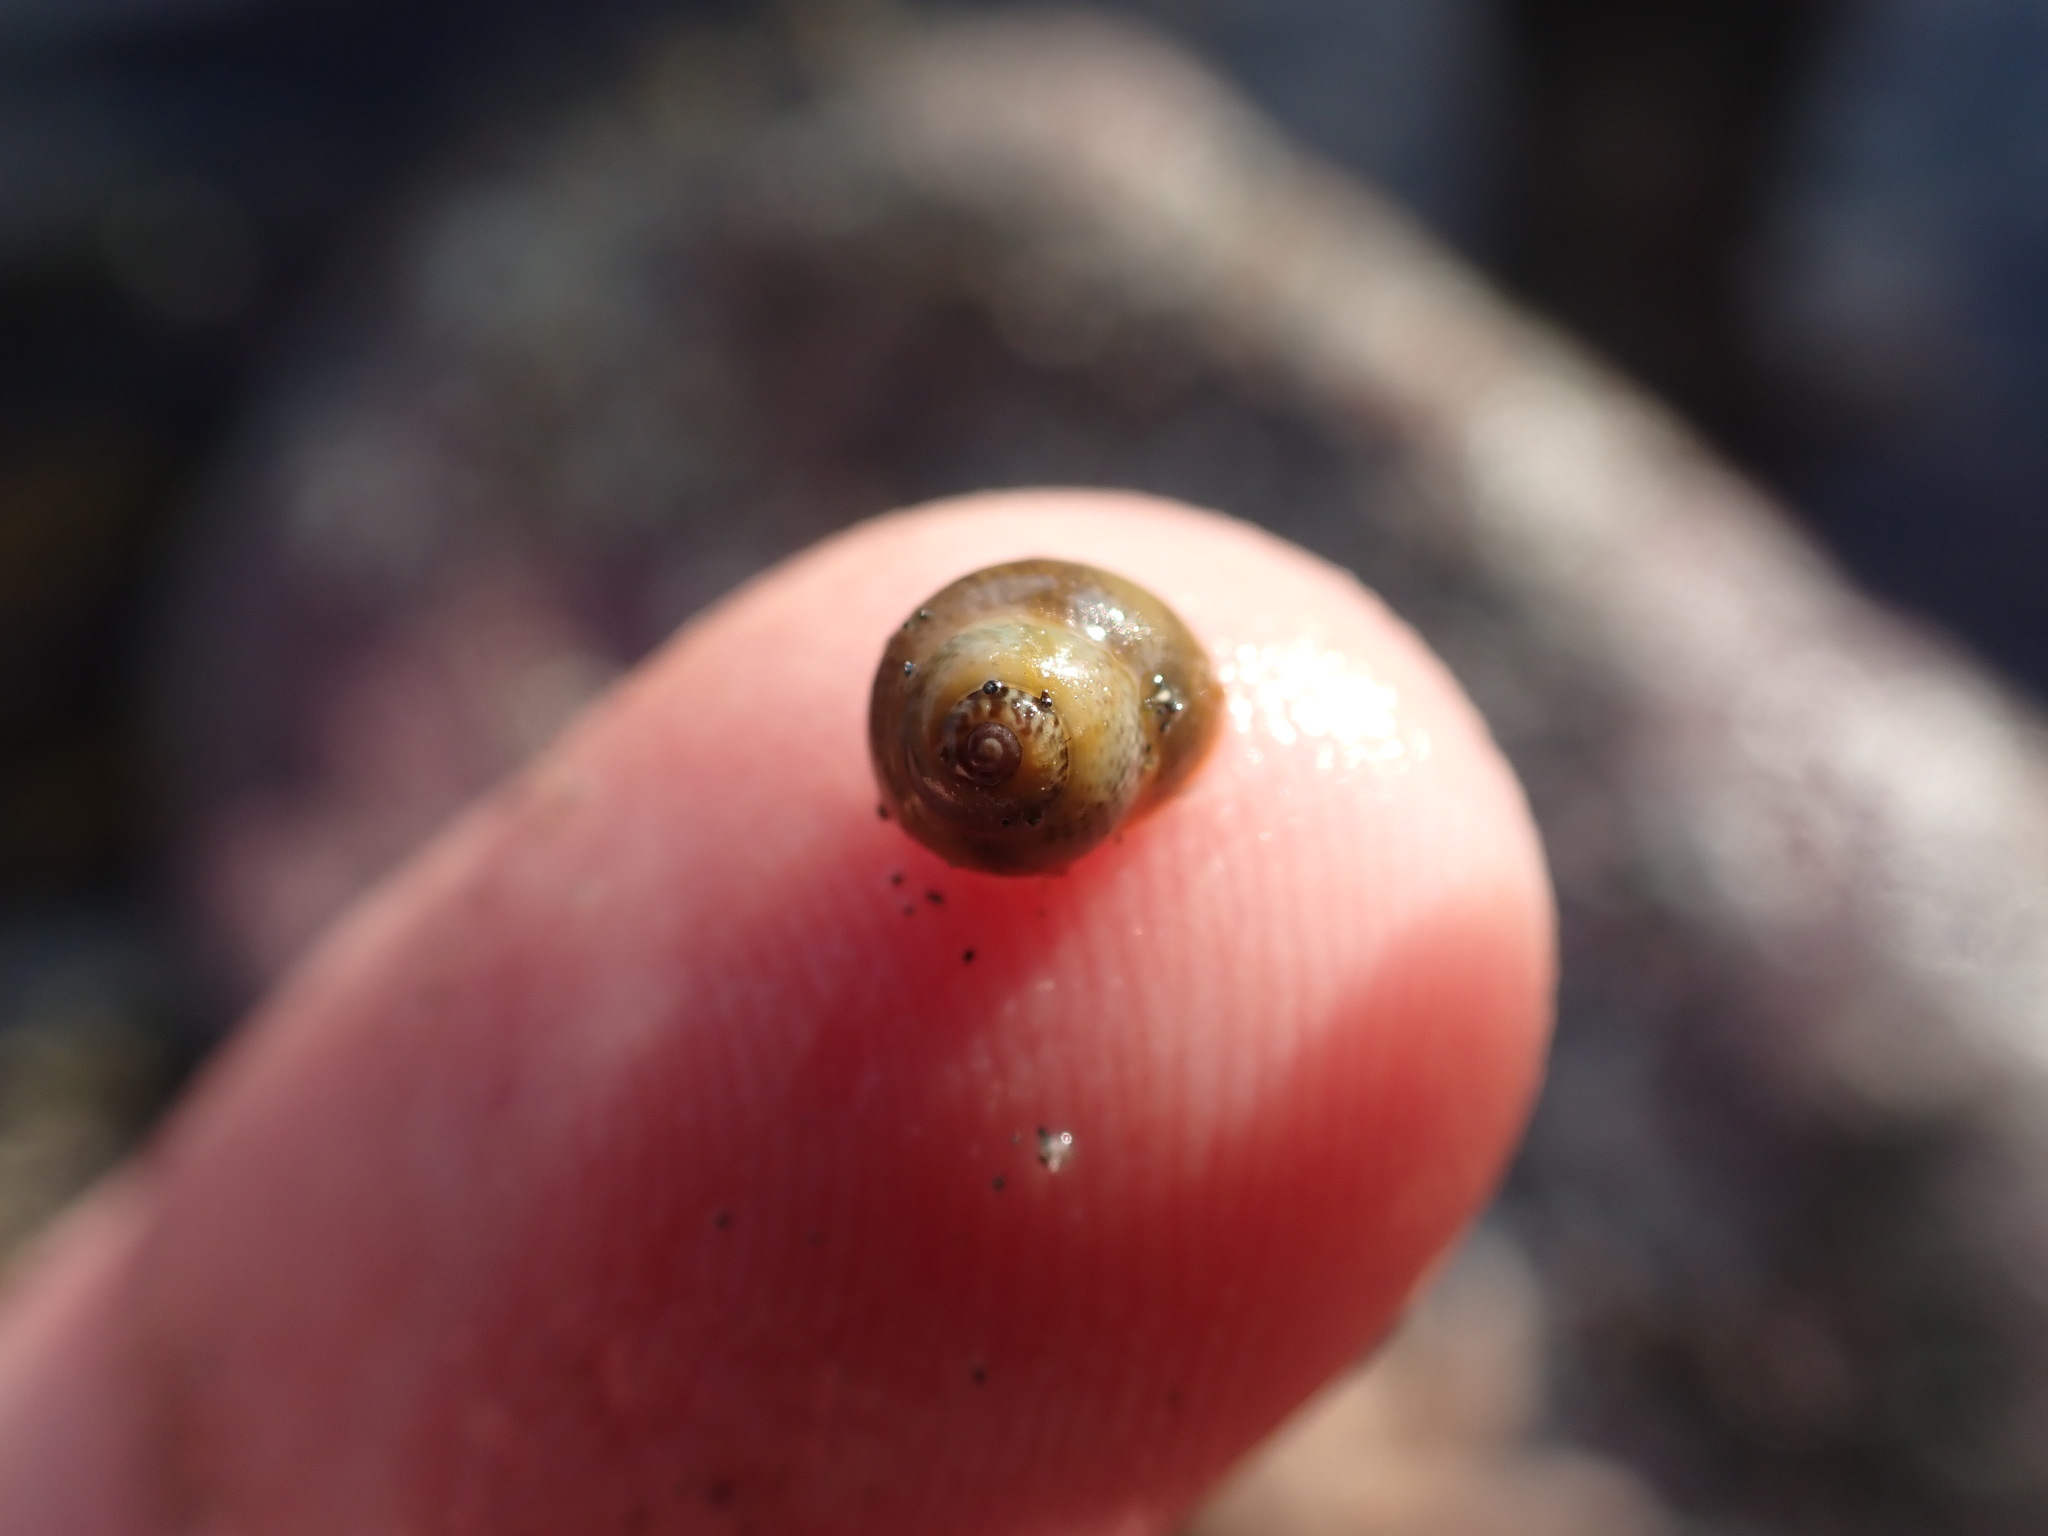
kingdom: Animalia
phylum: Mollusca
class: Gastropoda
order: Trochida
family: Trochidae
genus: Micrelenchus
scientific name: Micrelenchus tessellatus
